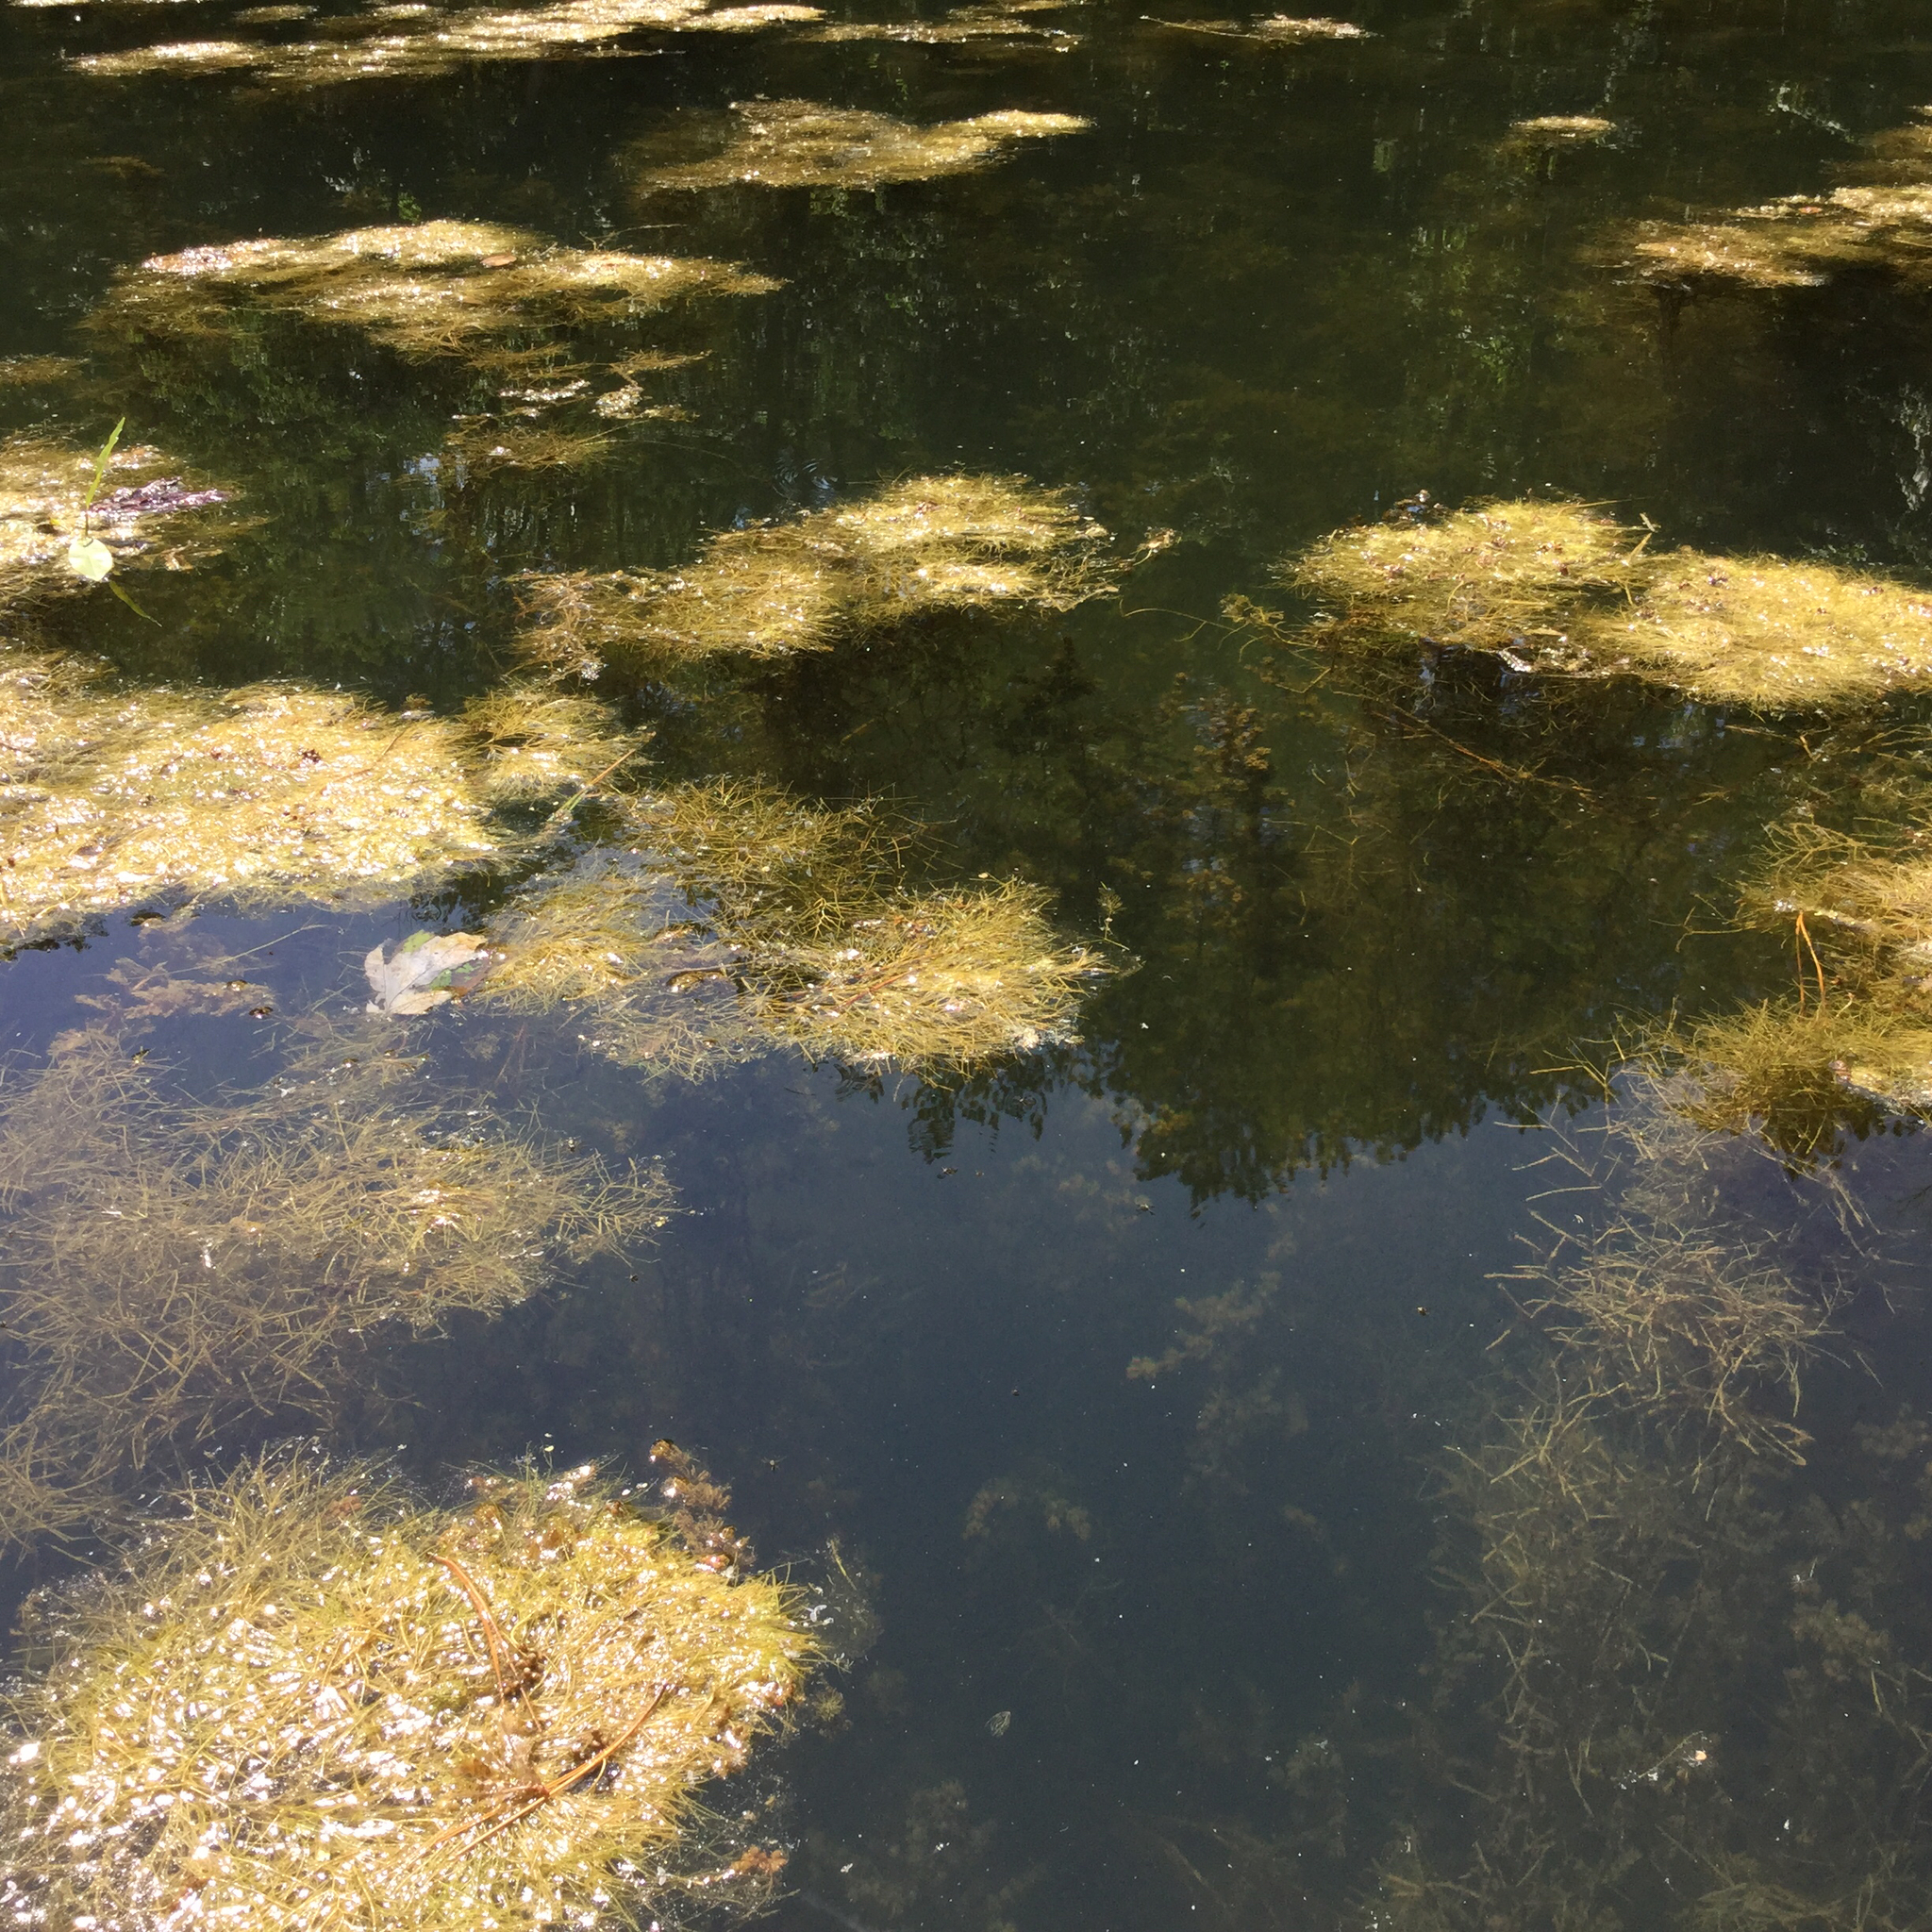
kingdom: Plantae
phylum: Tracheophyta
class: Liliopsida
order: Alismatales
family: Potamogetonaceae
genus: Stuckenia
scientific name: Stuckenia pectinata
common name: Sago pondweed
